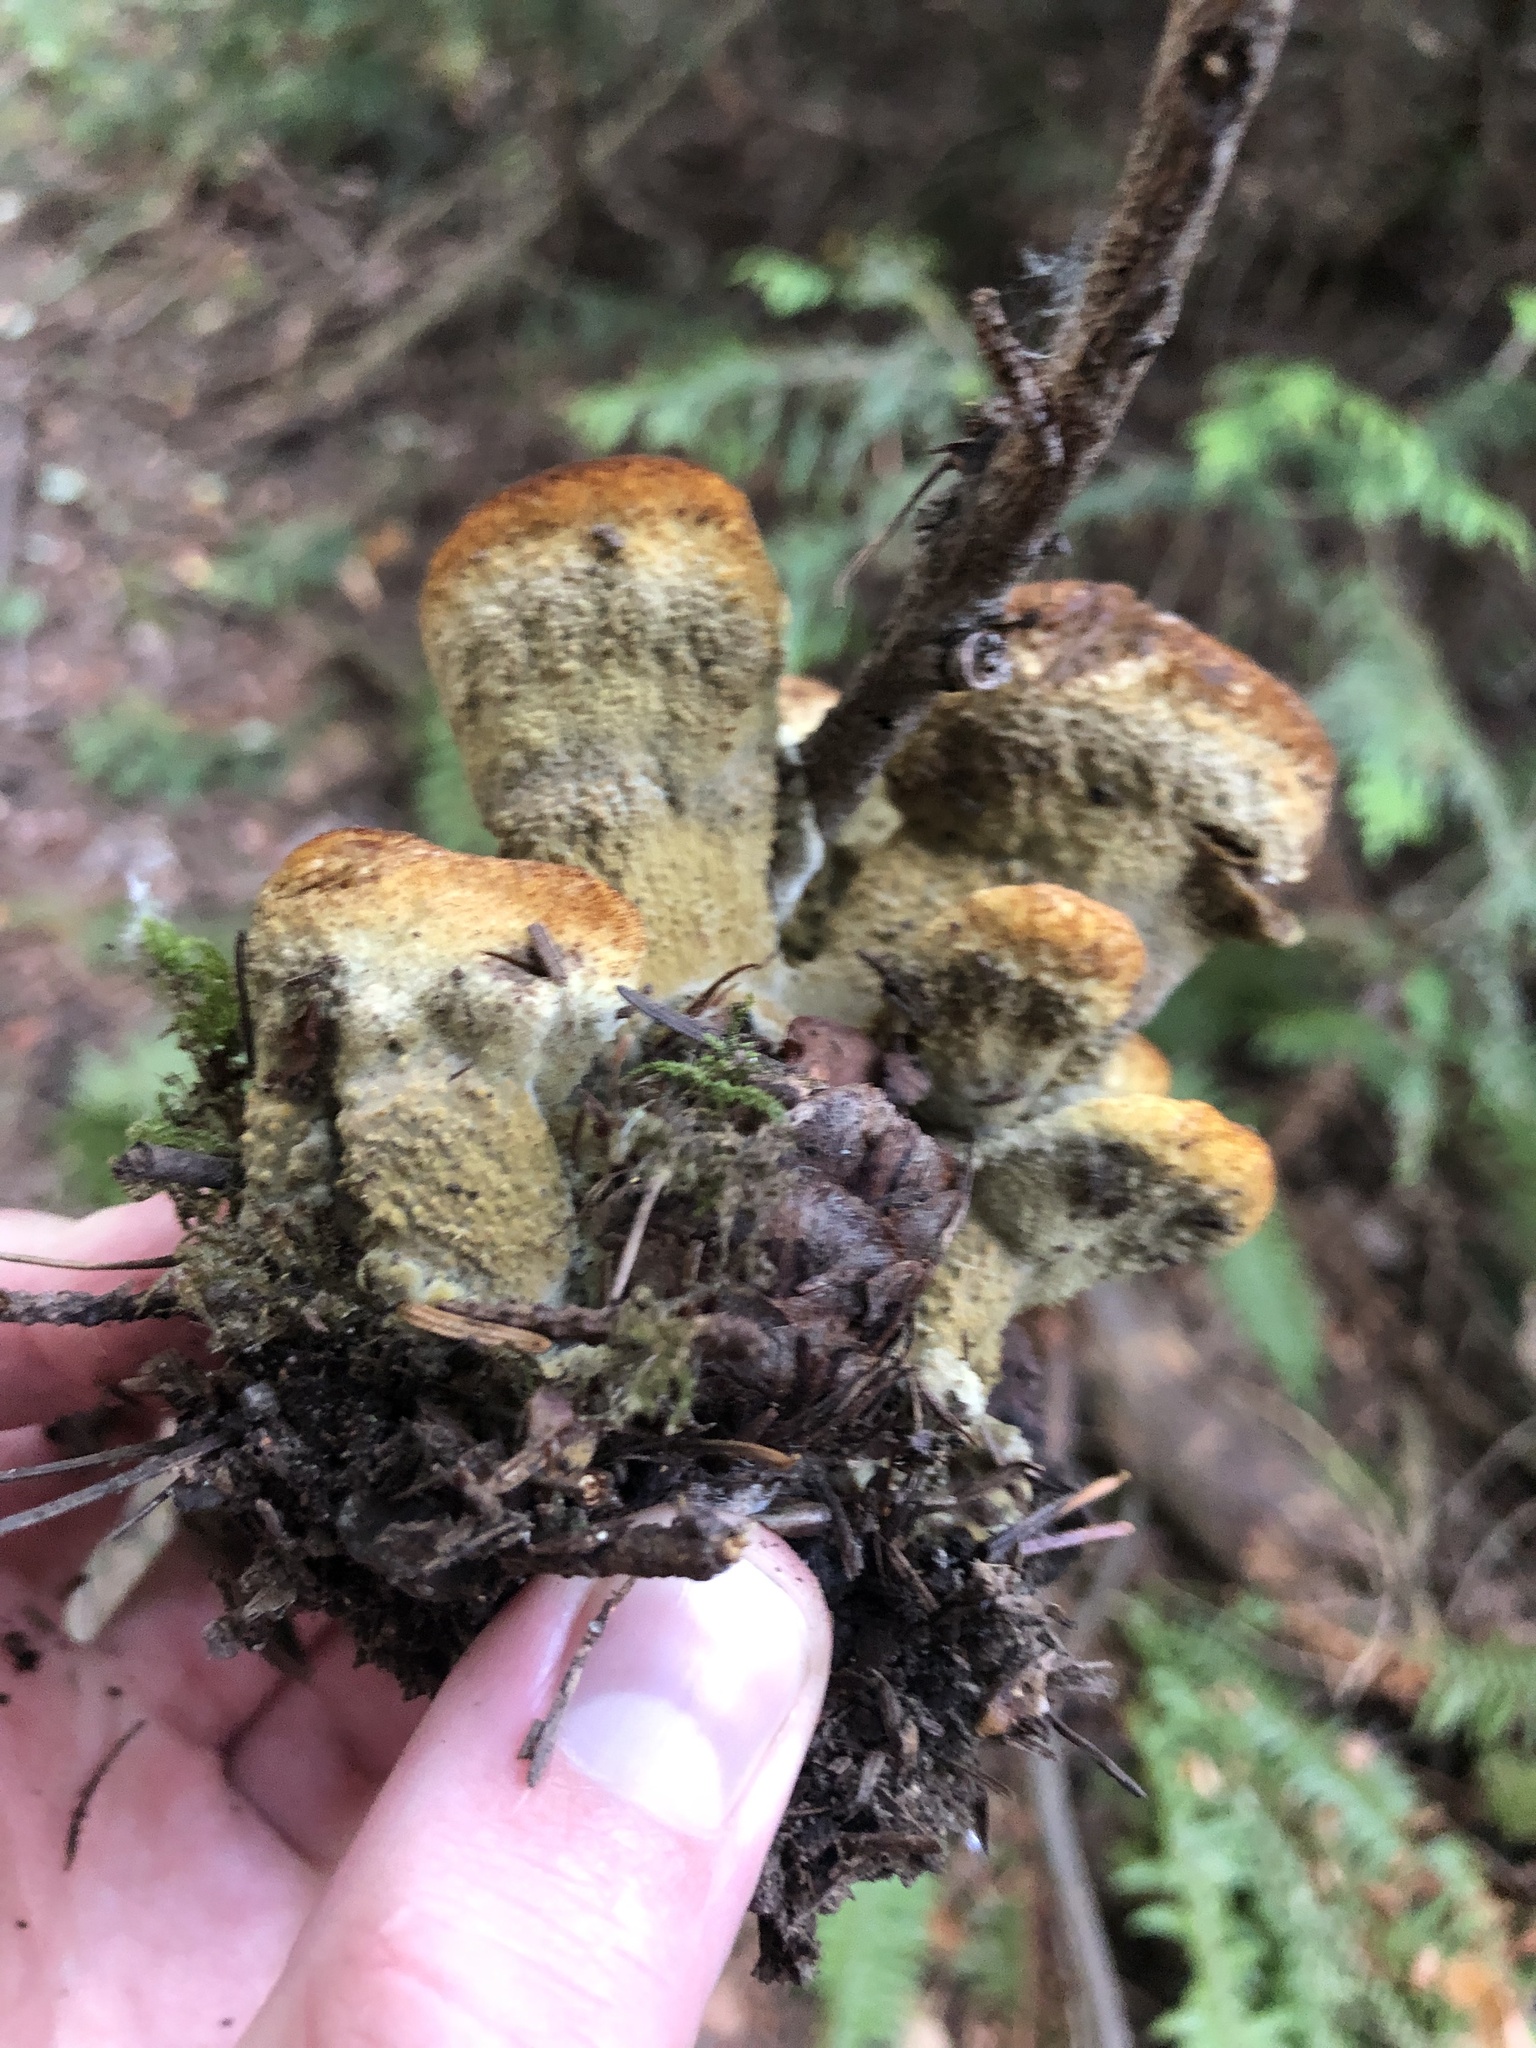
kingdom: Fungi
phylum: Basidiomycota
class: Agaricomycetes
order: Polyporales
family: Laetiporaceae
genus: Phaeolus
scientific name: Phaeolus schweinitzii
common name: Dyer's mazegill
